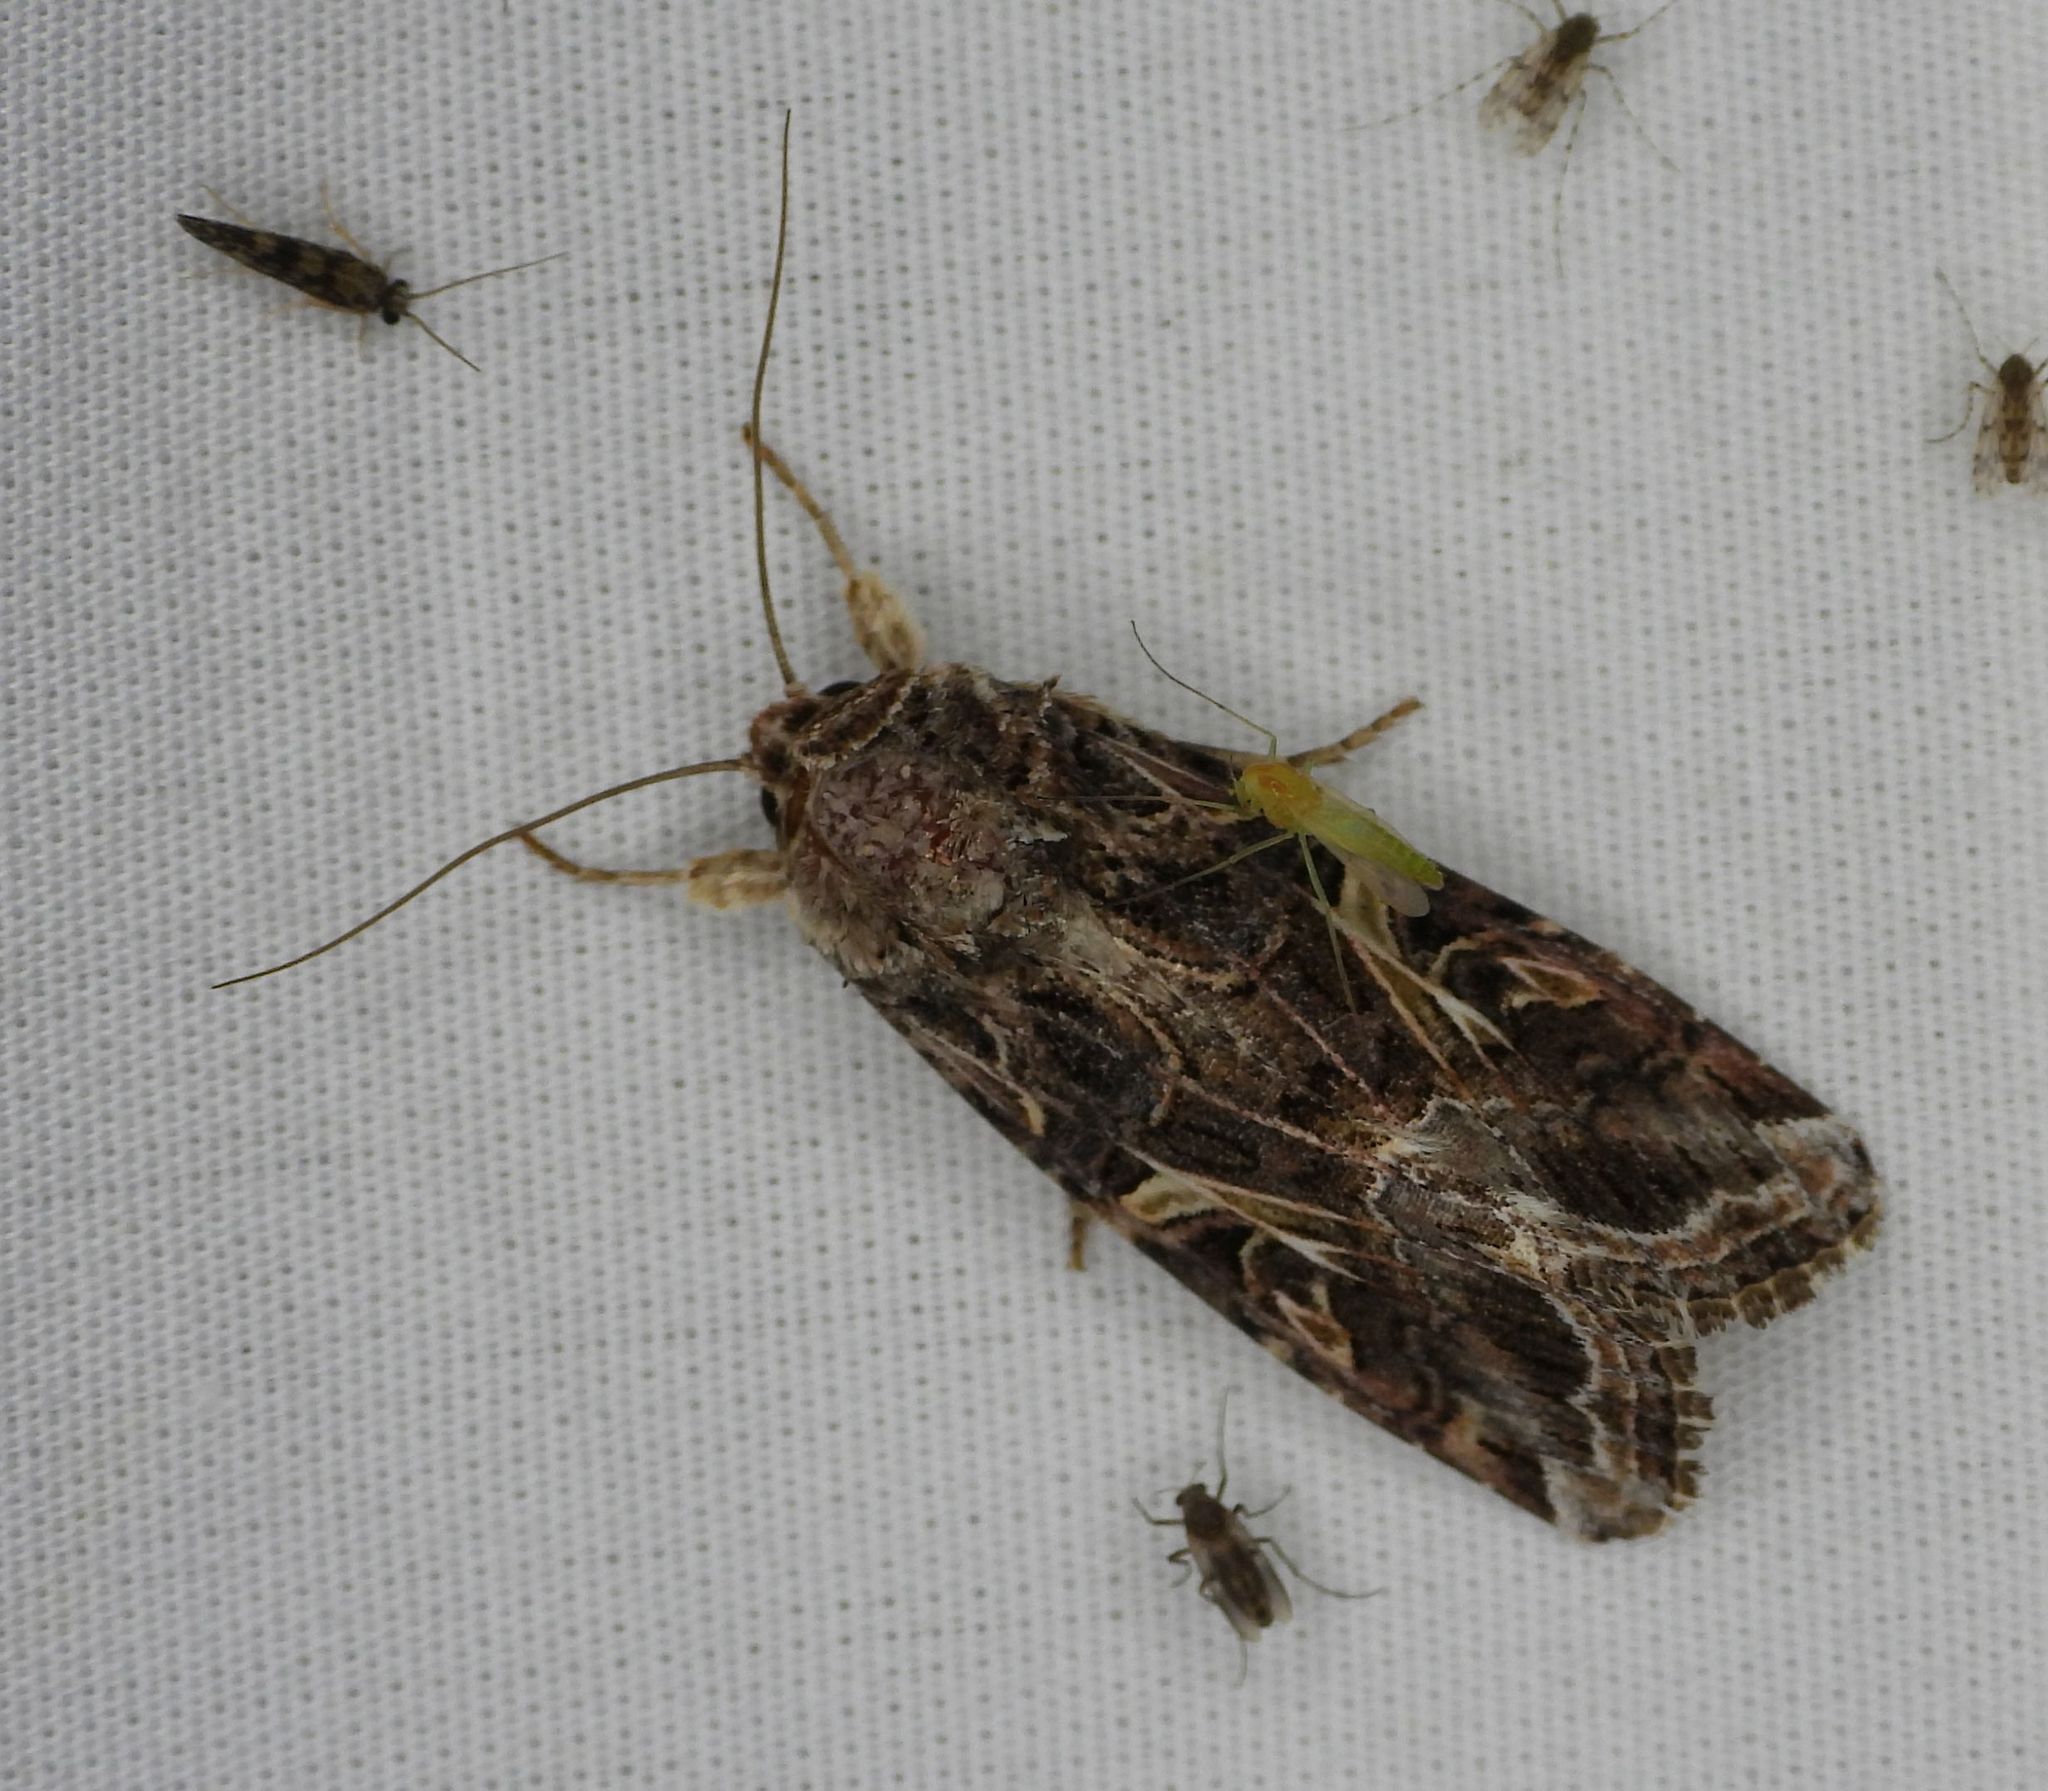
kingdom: Animalia
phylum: Arthropoda
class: Insecta
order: Lepidoptera
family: Noctuidae
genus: Spodoptera
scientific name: Spodoptera ornithogalli
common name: Yellow-striped armyworm
